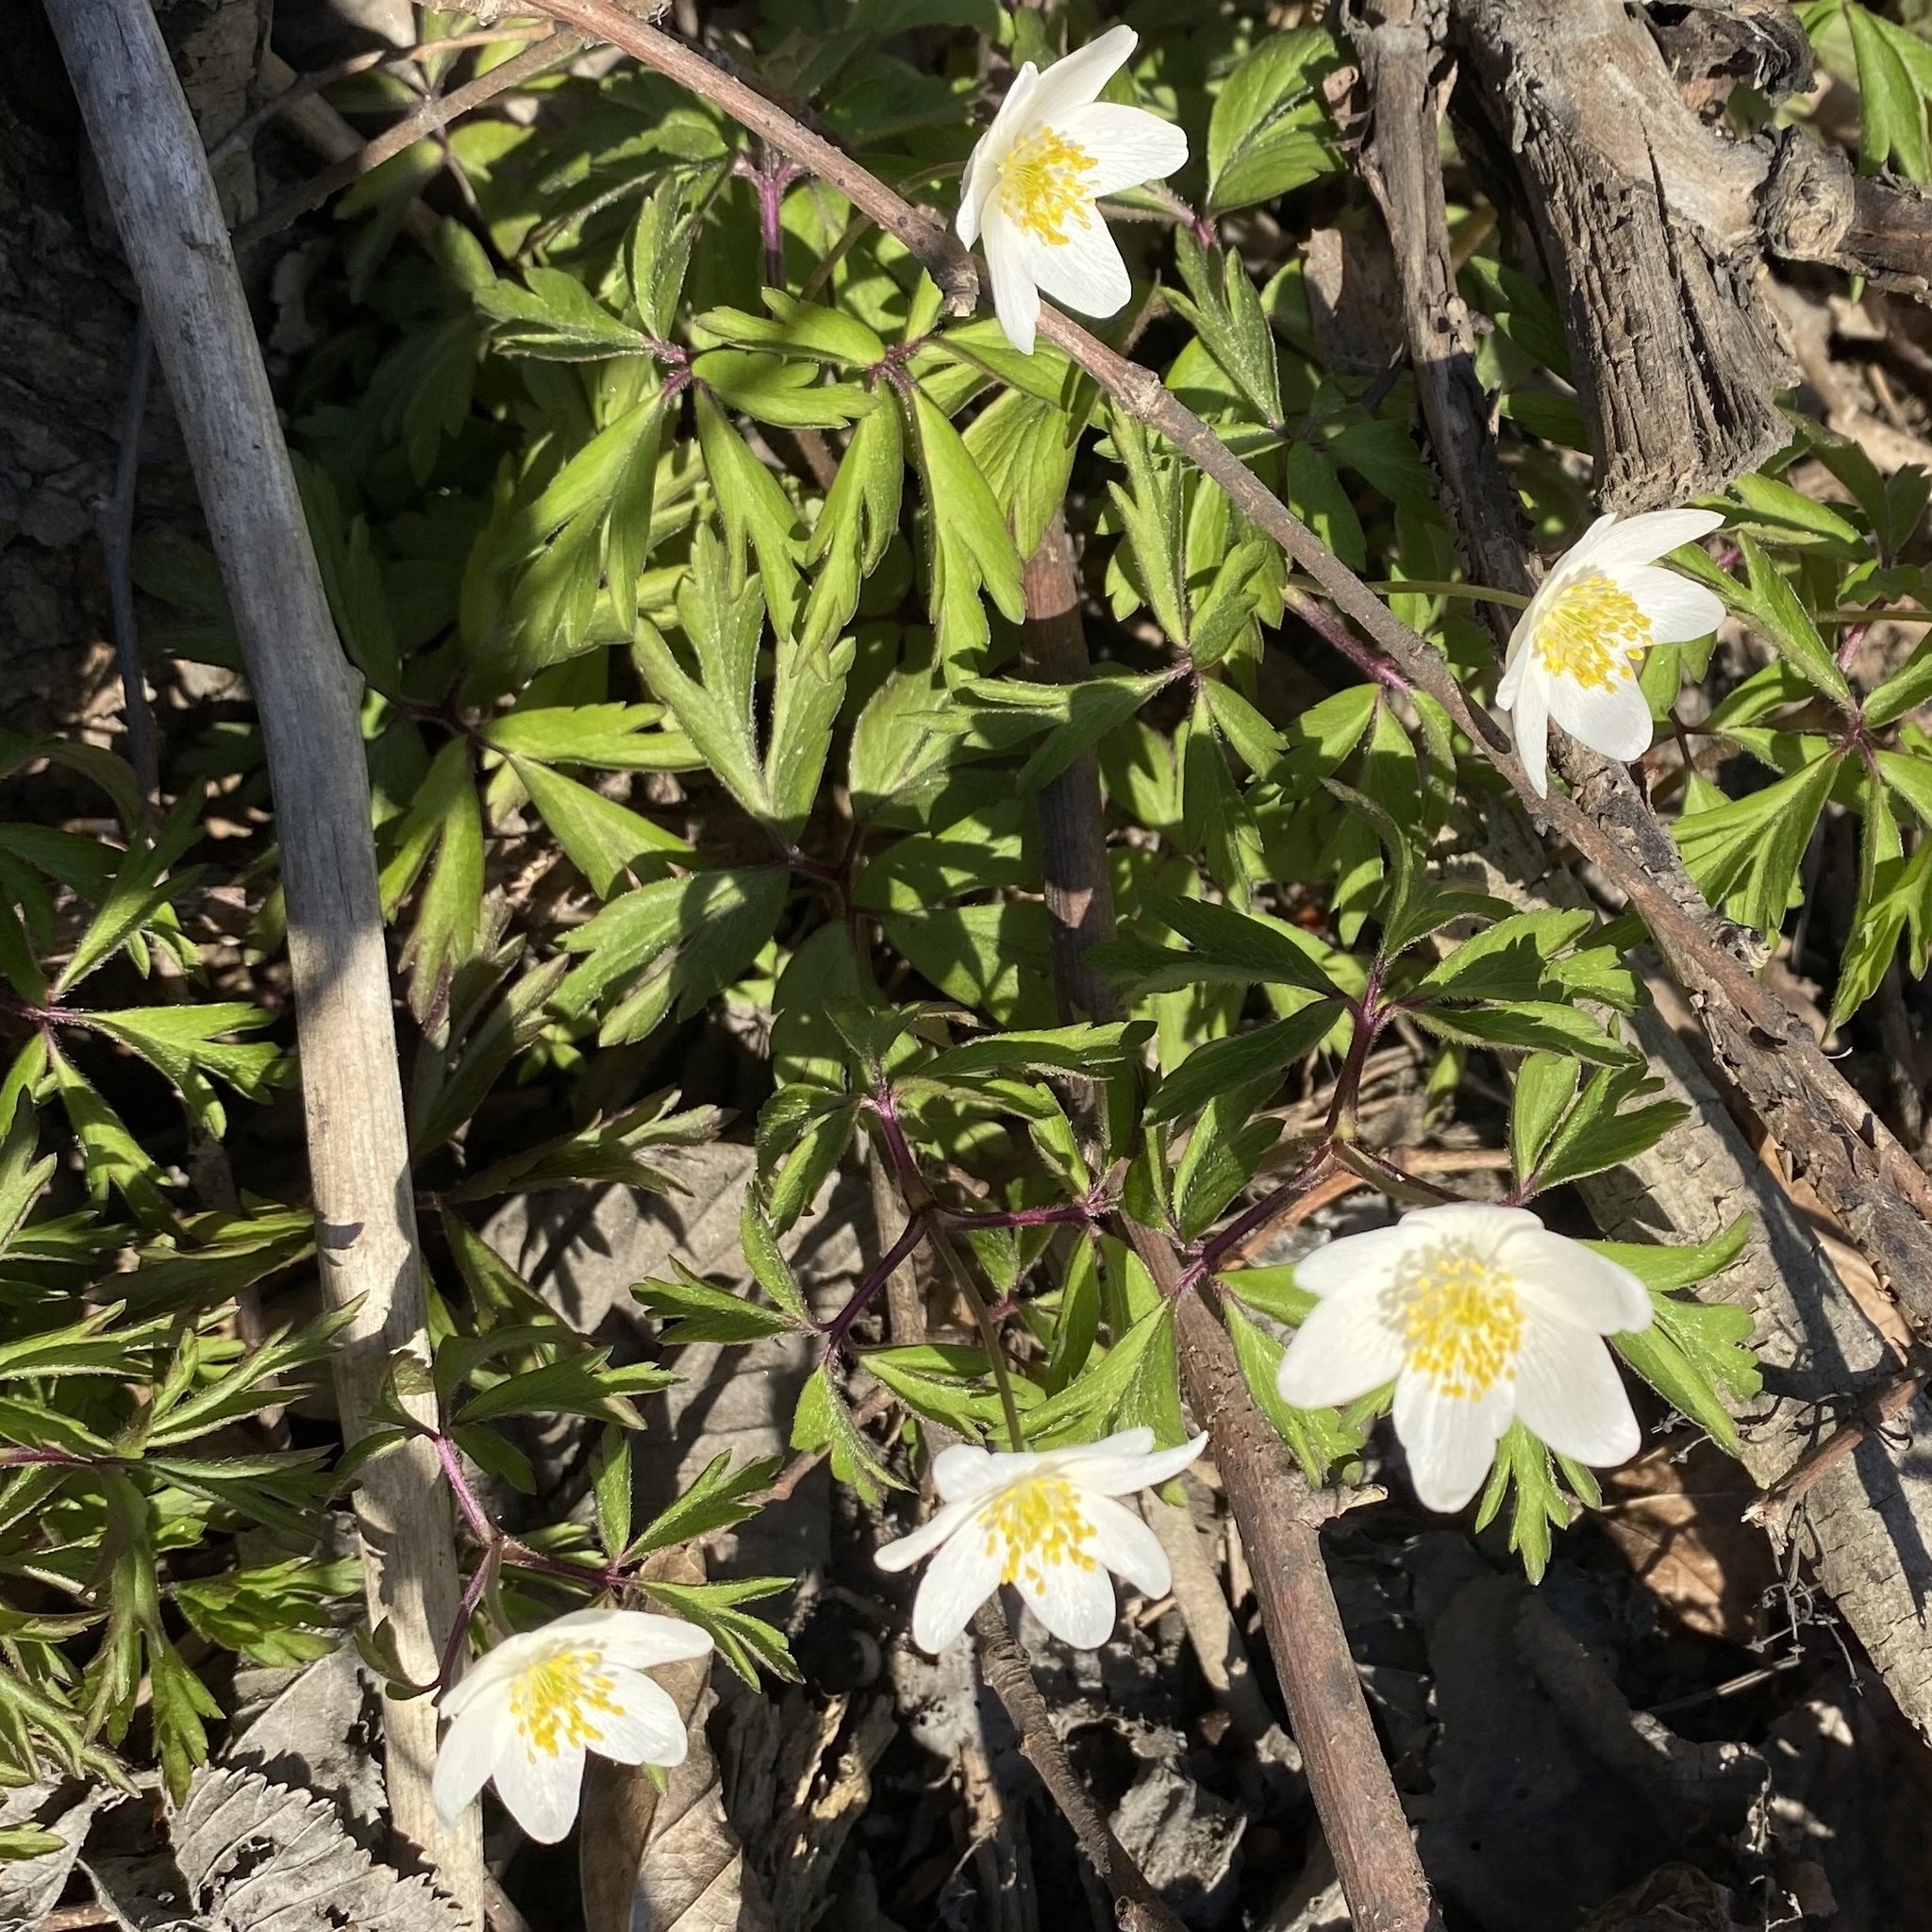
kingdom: Plantae
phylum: Tracheophyta
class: Magnoliopsida
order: Ranunculales
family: Ranunculaceae
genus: Anemone
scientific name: Anemone nemorosa
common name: Wood anemone
